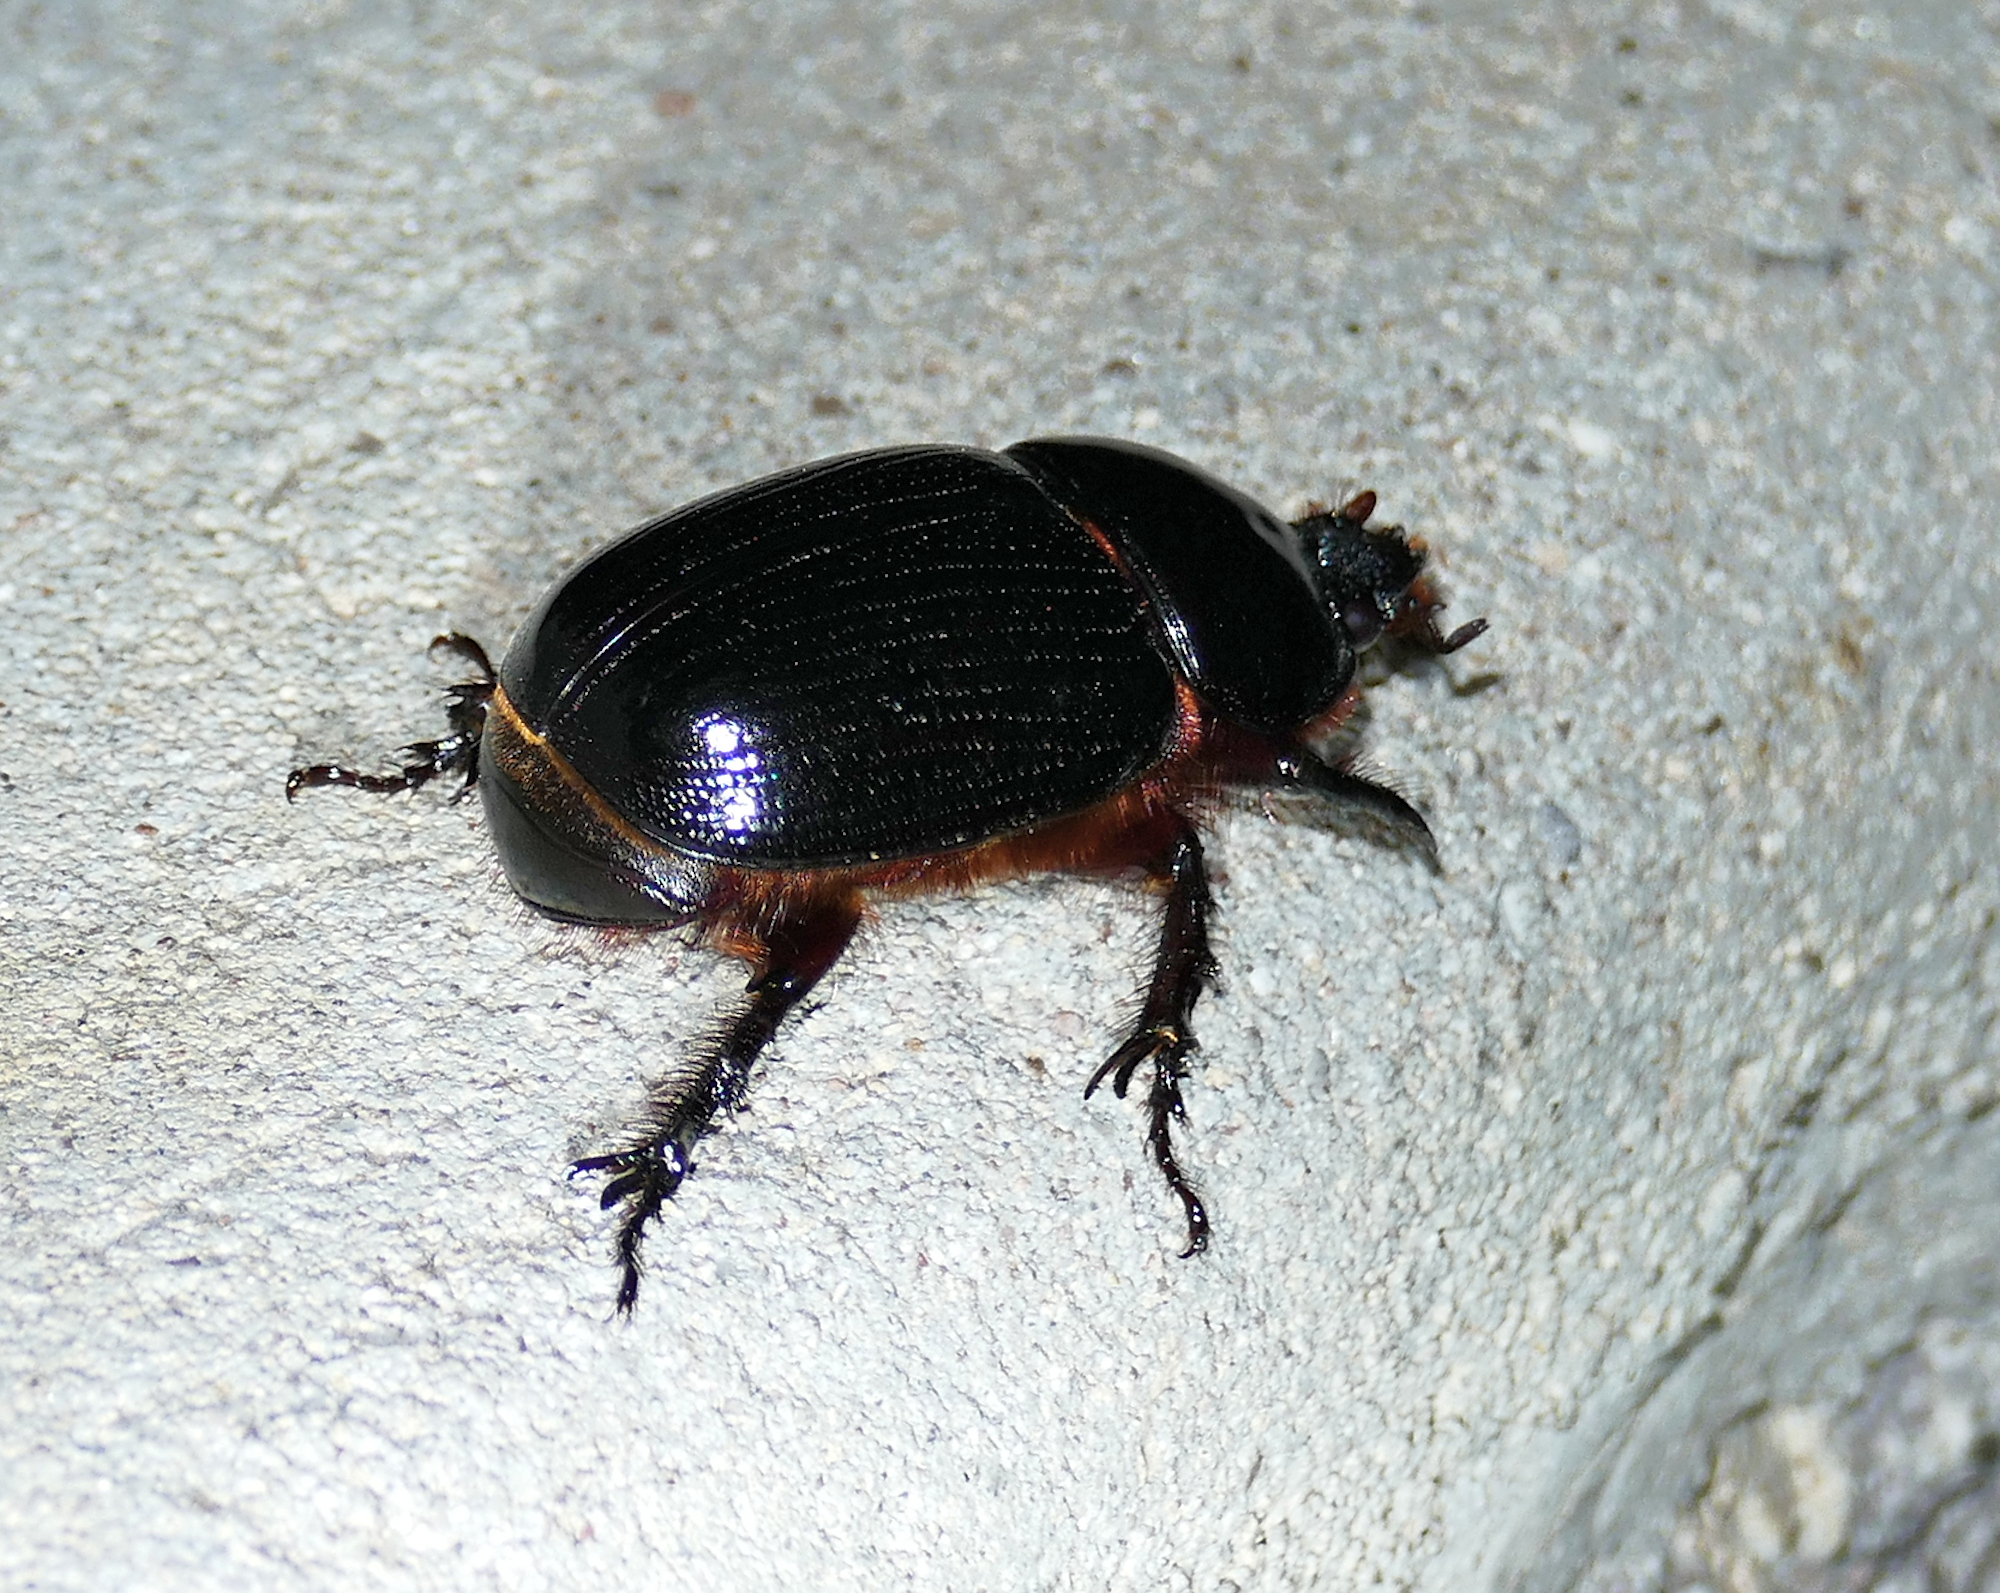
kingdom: Animalia
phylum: Arthropoda
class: Insecta
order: Coleoptera
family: Scarabaeidae
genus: Xyloryctes
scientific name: Xyloryctes thestalus
